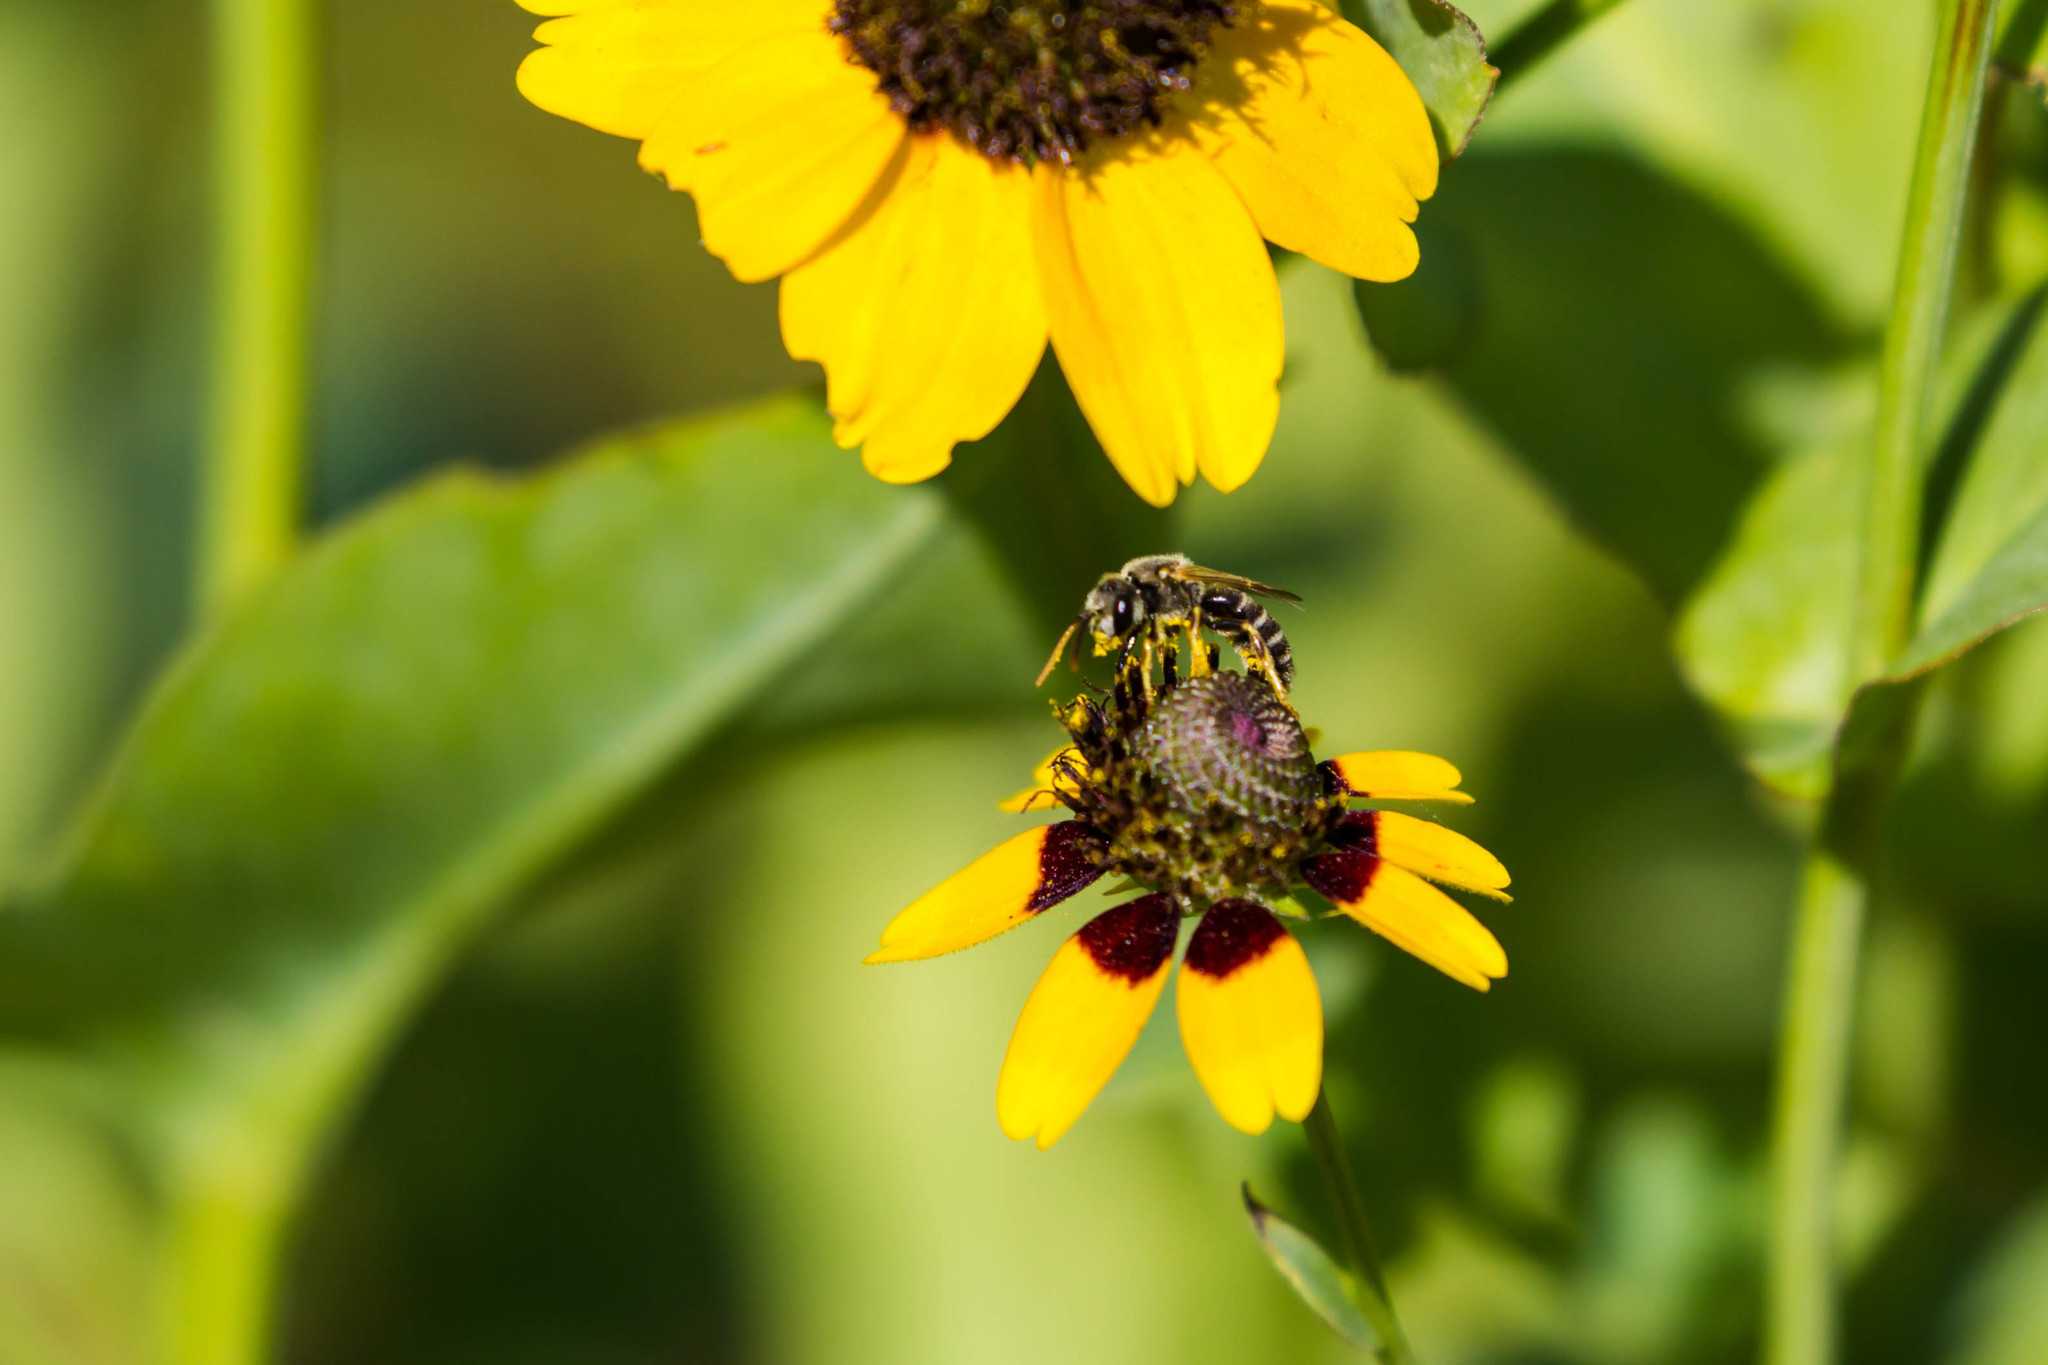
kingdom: Animalia
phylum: Arthropoda
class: Insecta
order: Hymenoptera
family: Halictidae
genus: Halictus
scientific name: Halictus ligatus
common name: Ligated furrow bee
